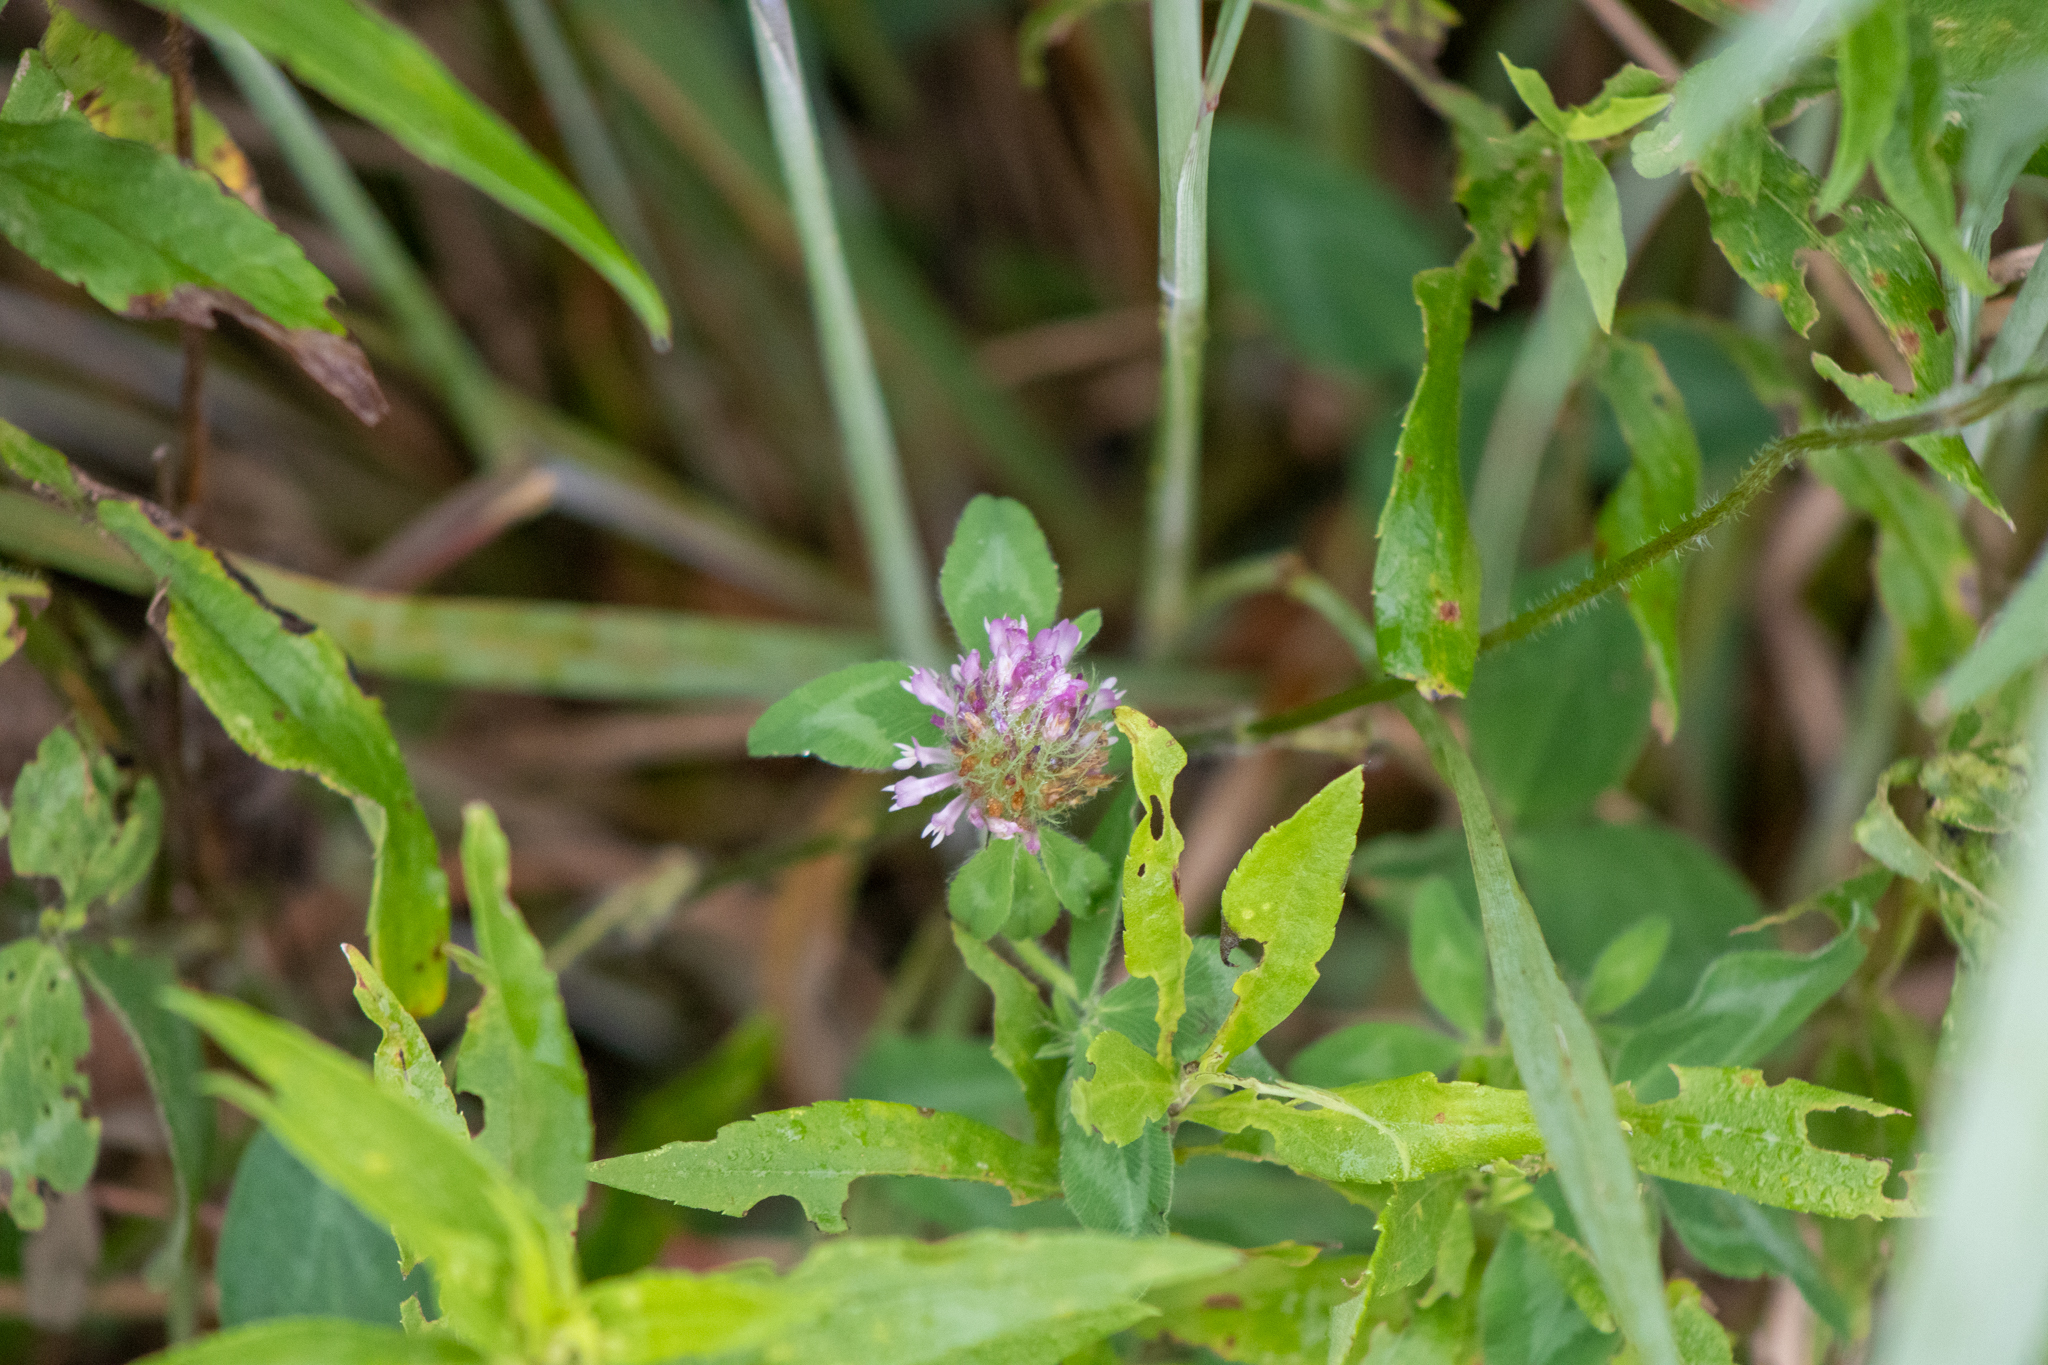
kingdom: Plantae
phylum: Tracheophyta
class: Magnoliopsida
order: Fabales
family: Fabaceae
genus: Trifolium
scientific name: Trifolium pratense
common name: Red clover
